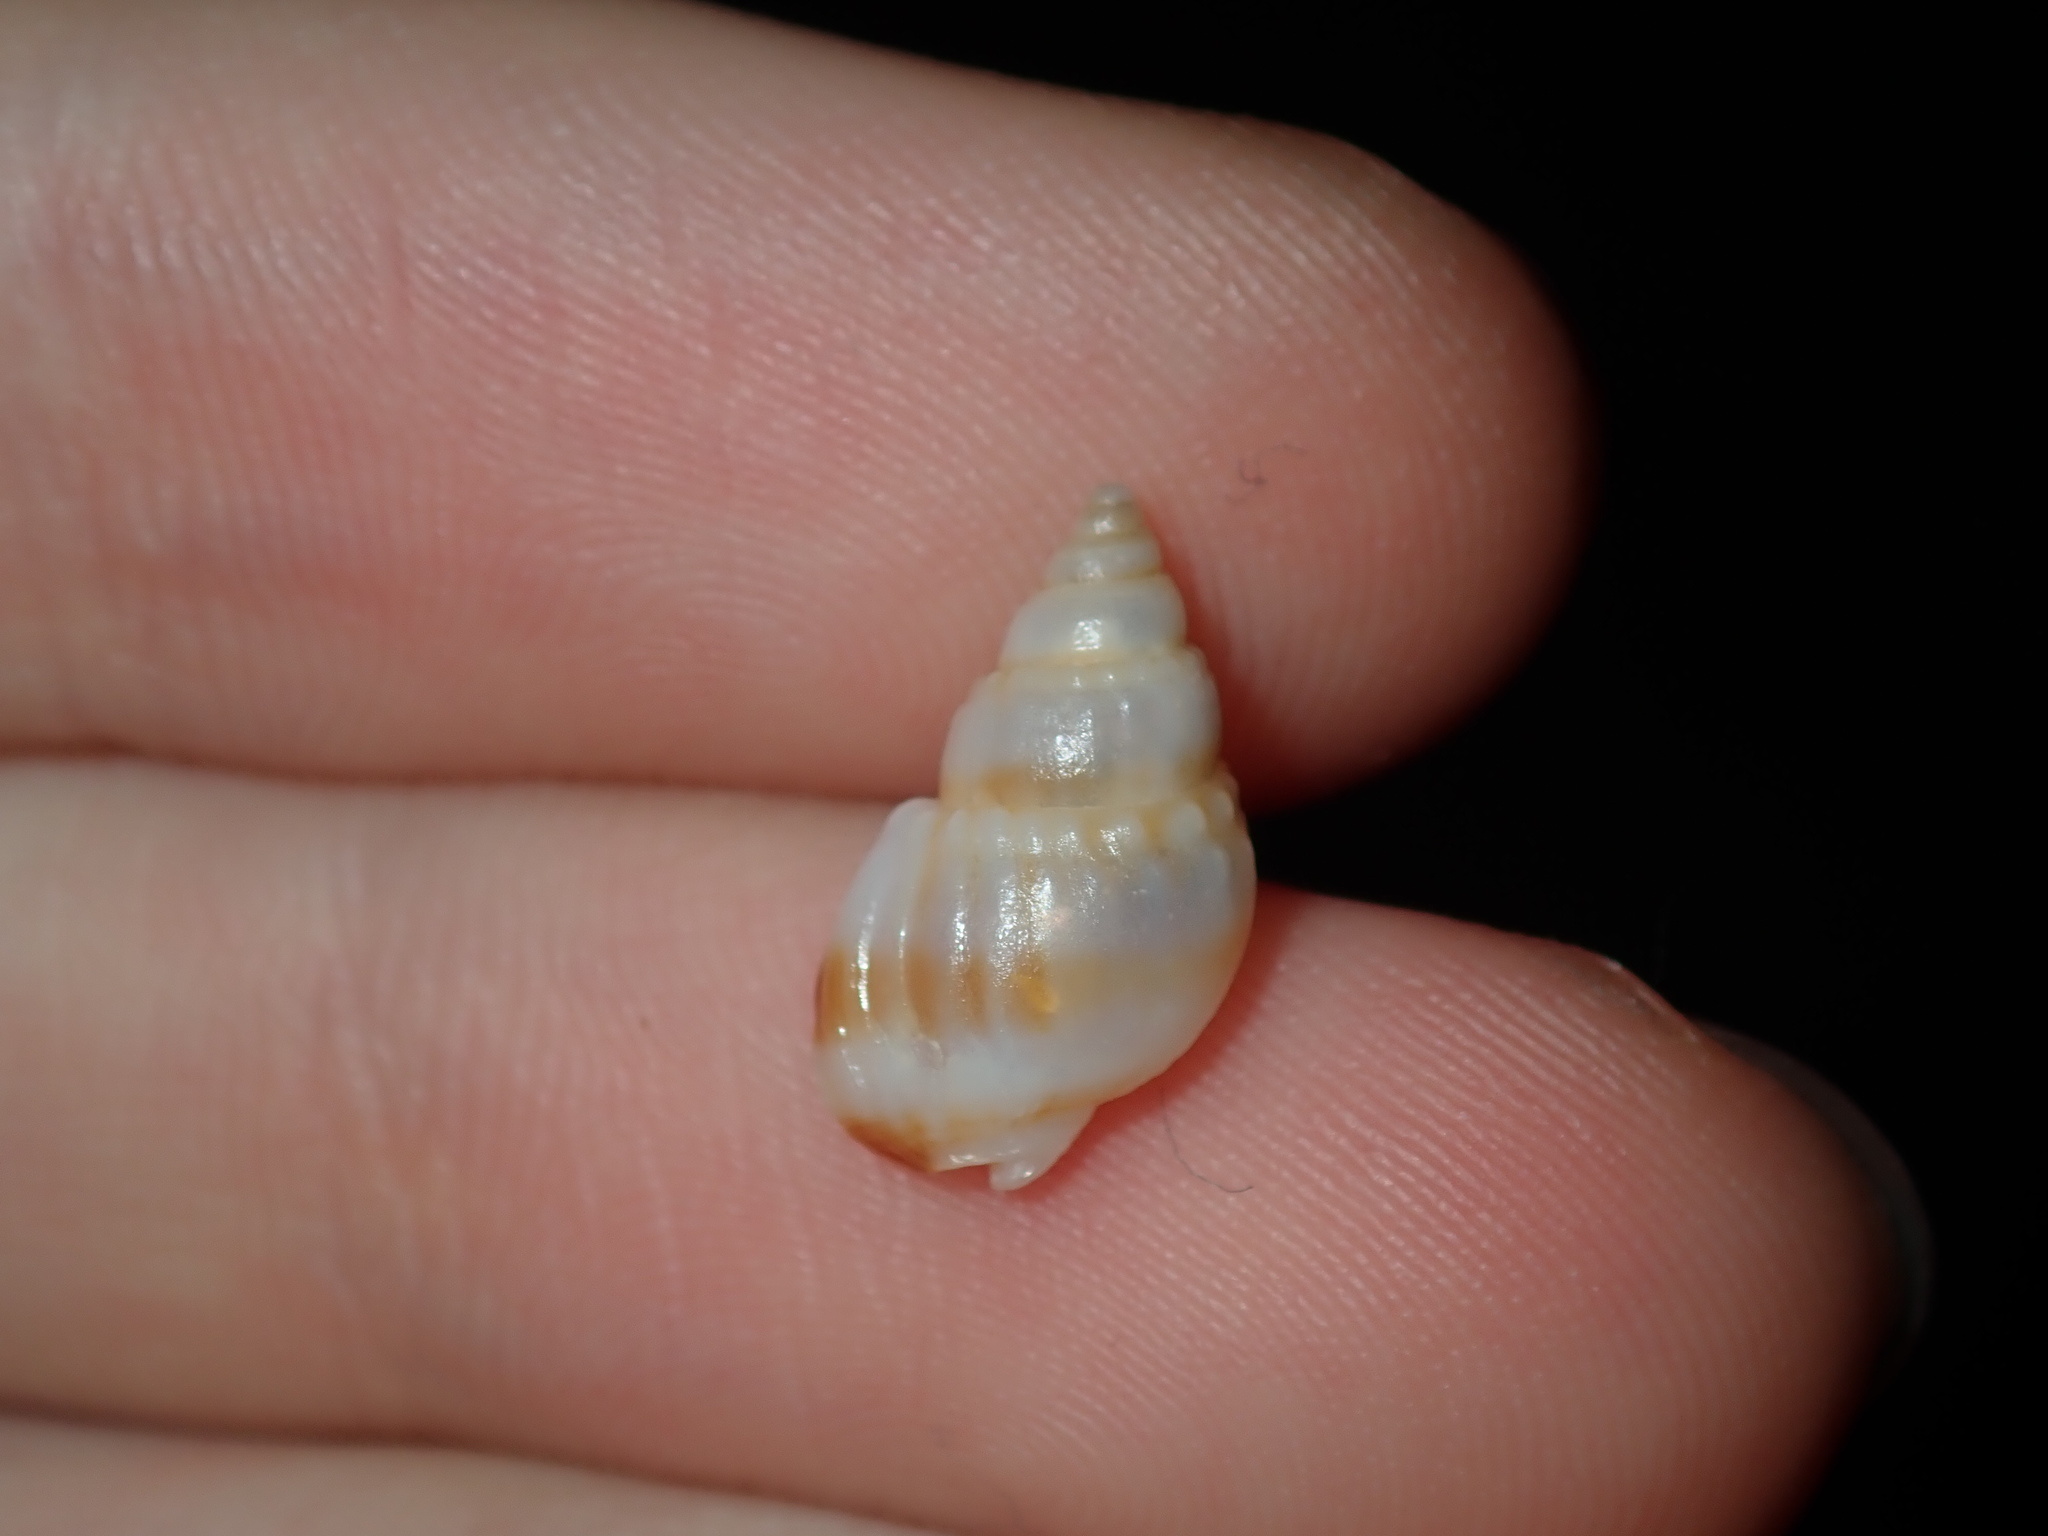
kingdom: Animalia
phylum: Mollusca
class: Gastropoda
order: Neogastropoda
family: Nassariidae
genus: Nassarius
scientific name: Nassarius nigellus
